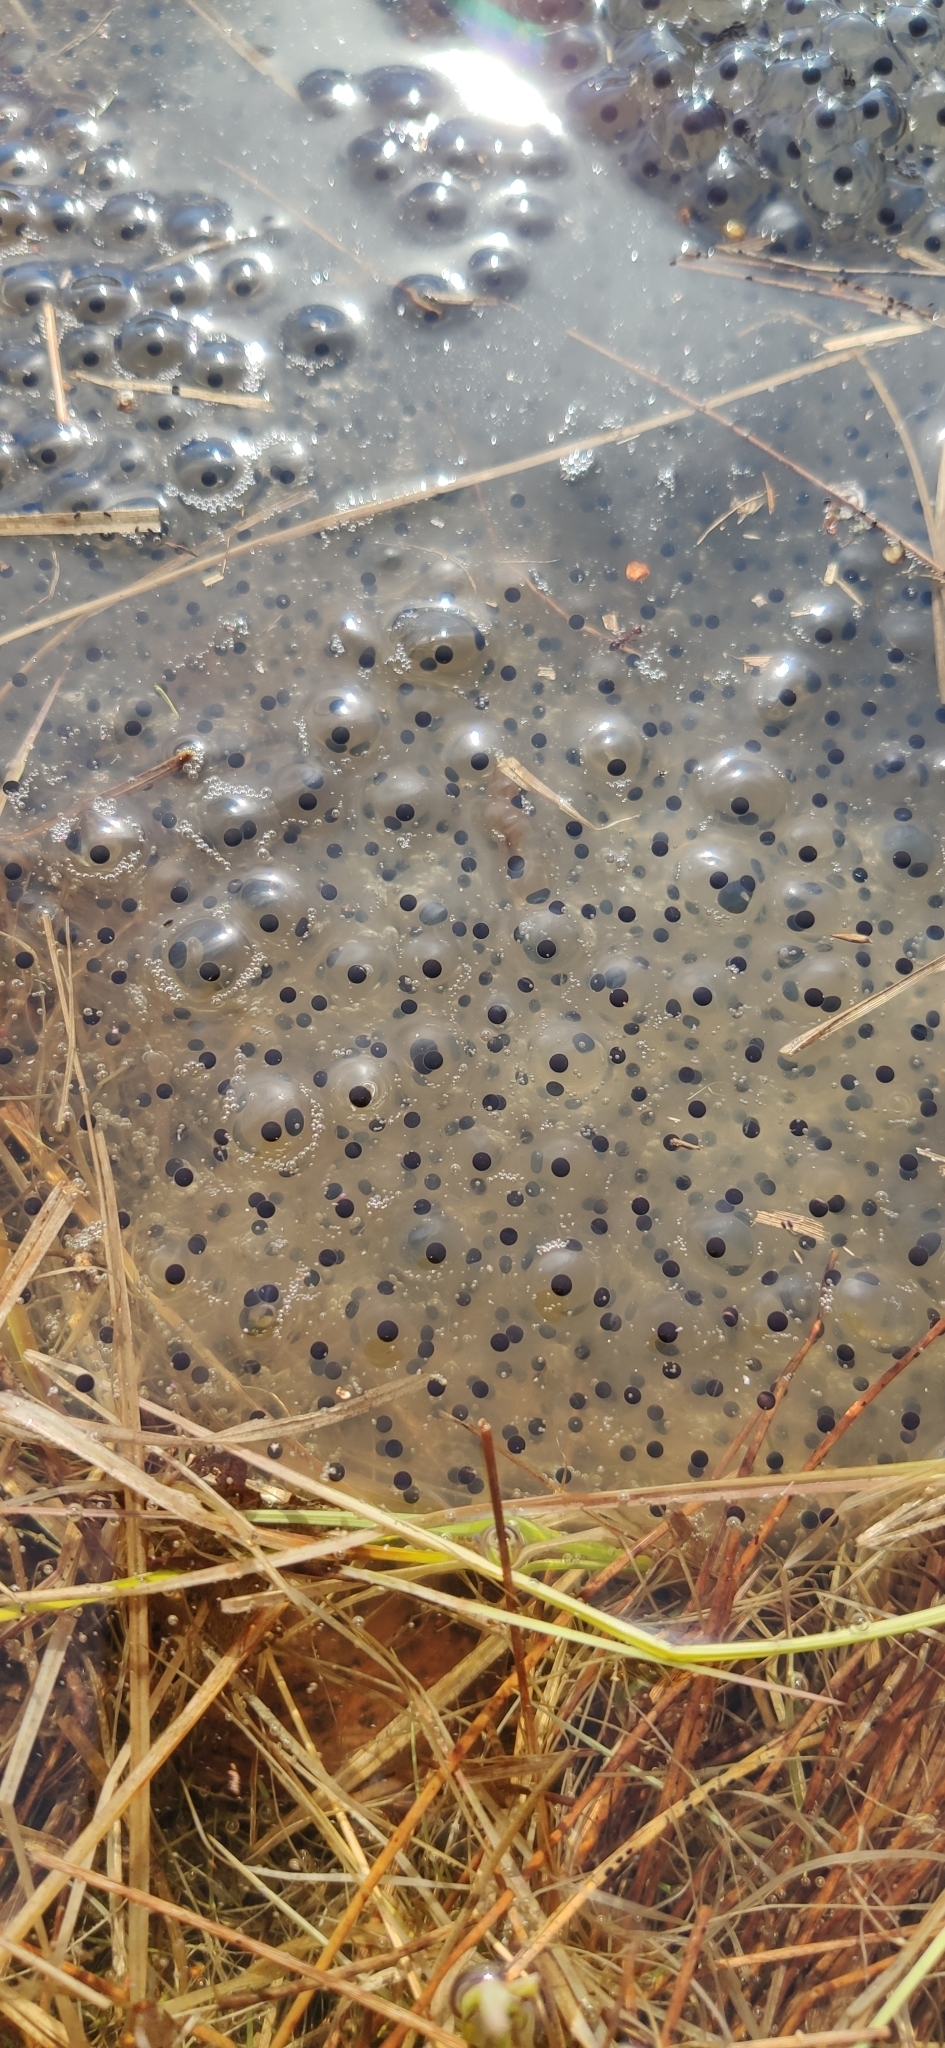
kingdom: Animalia
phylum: Chordata
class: Amphibia
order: Anura
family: Ranidae
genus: Rana
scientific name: Rana temporaria
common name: Common frog
